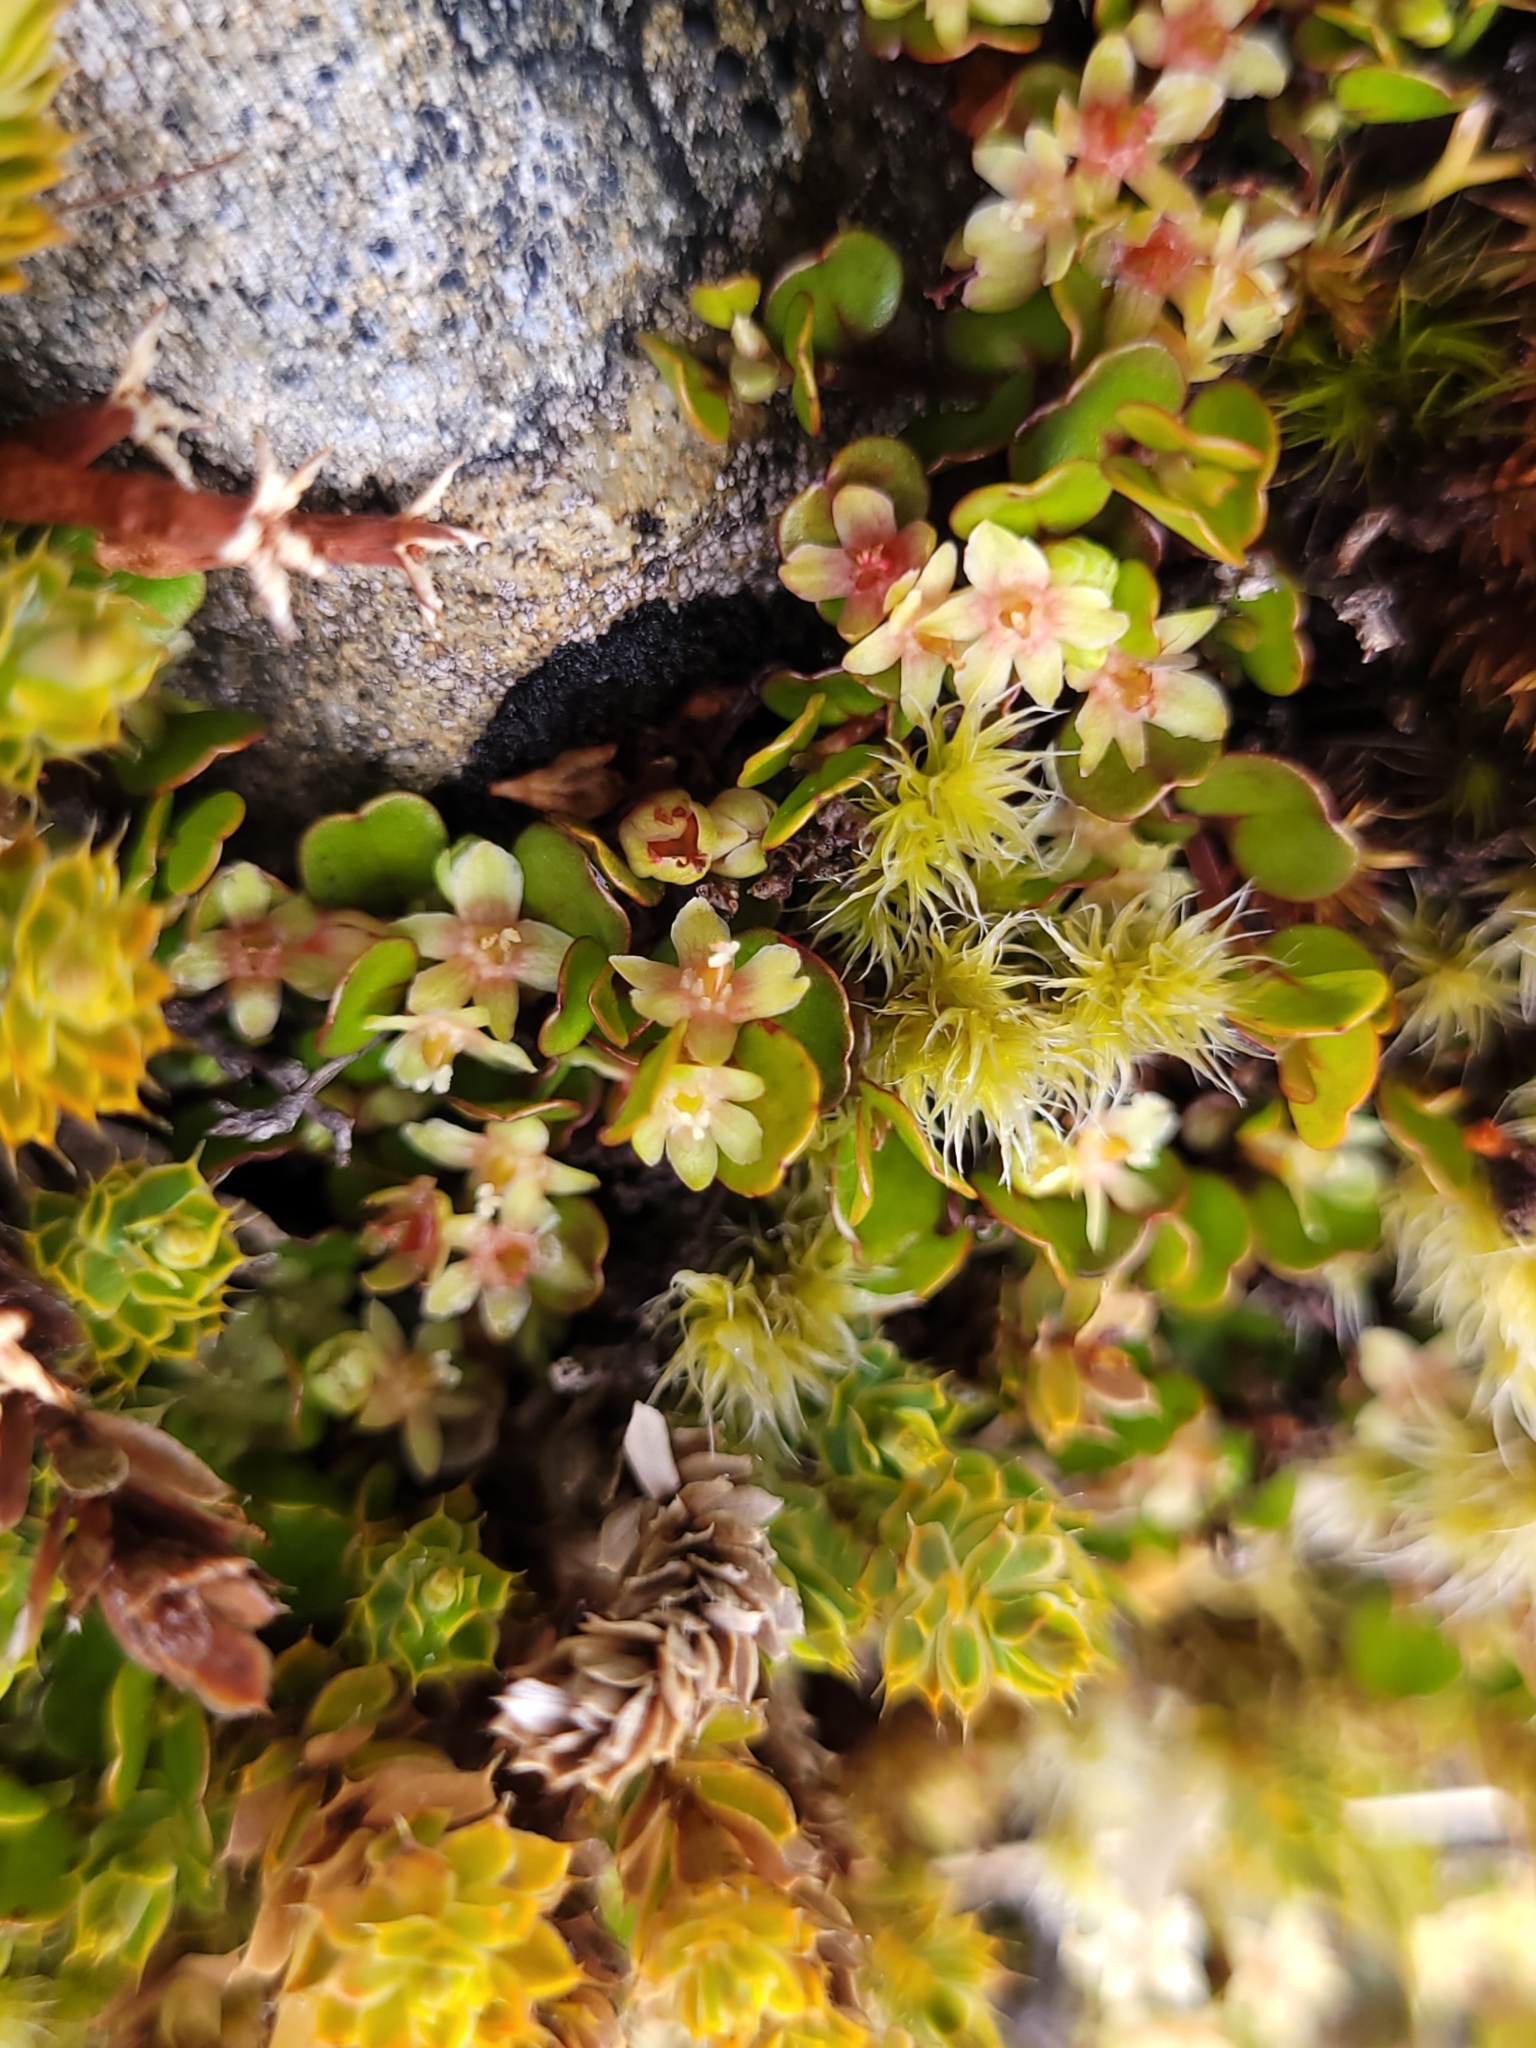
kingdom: Plantae
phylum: Tracheophyta
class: Magnoliopsida
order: Caryophyllales
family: Polygonaceae
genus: Muehlenbeckia
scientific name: Muehlenbeckia axillaris
